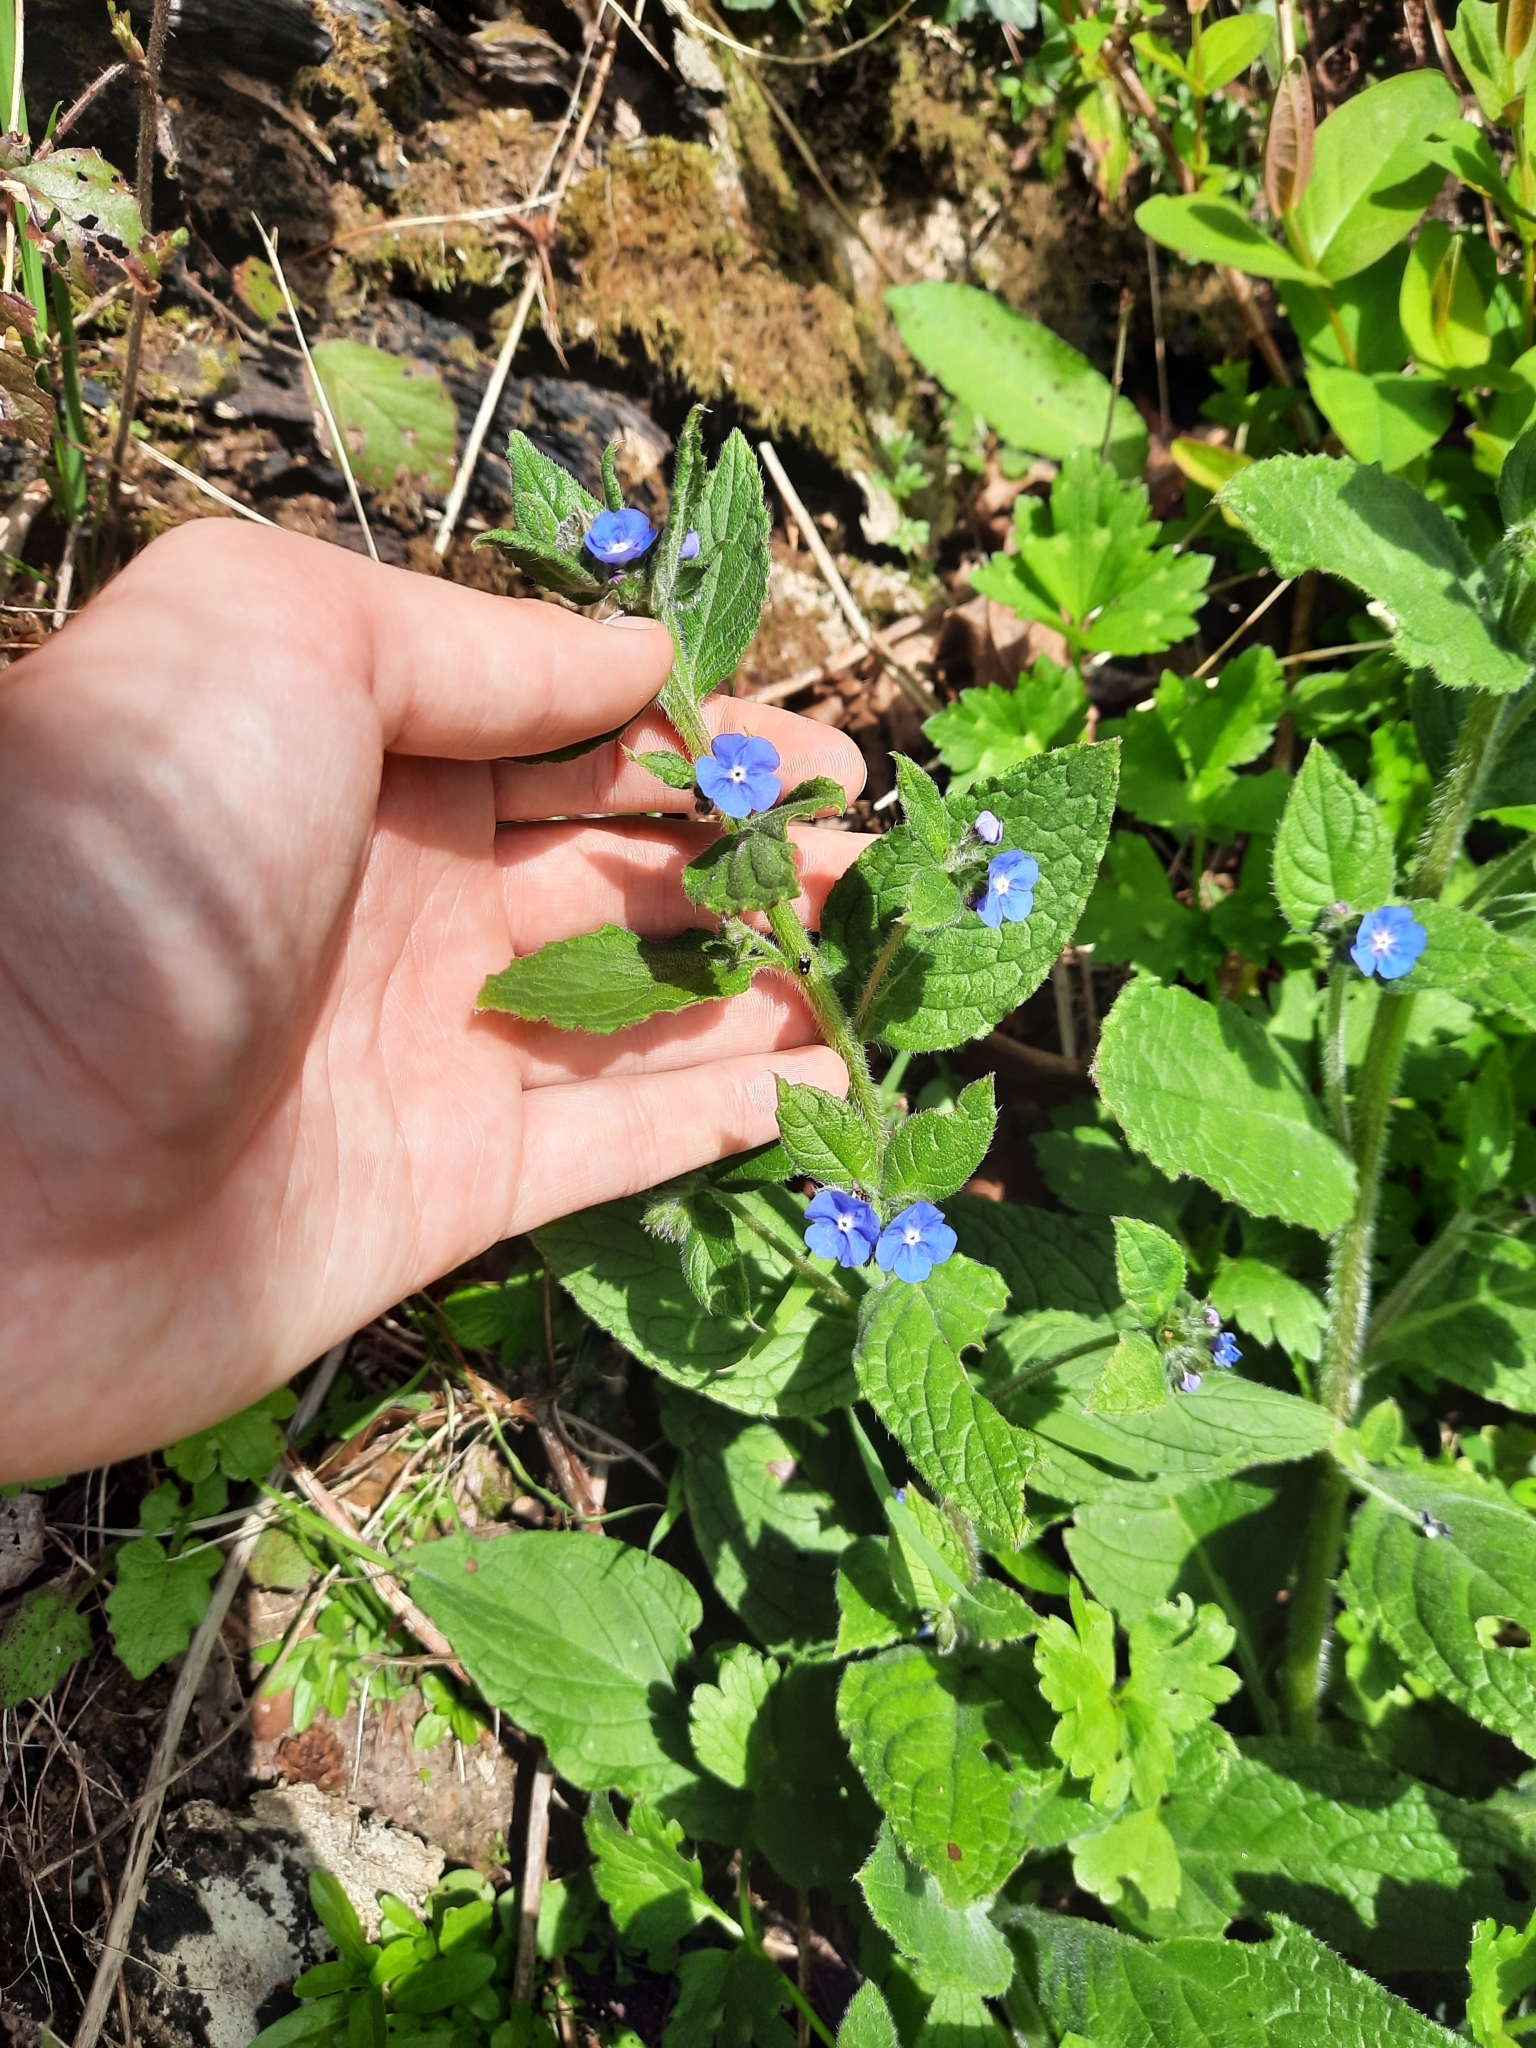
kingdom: Plantae
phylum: Tracheophyta
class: Magnoliopsida
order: Boraginales
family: Boraginaceae
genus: Pentaglottis
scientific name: Pentaglottis sempervirens
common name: Green alkanet
